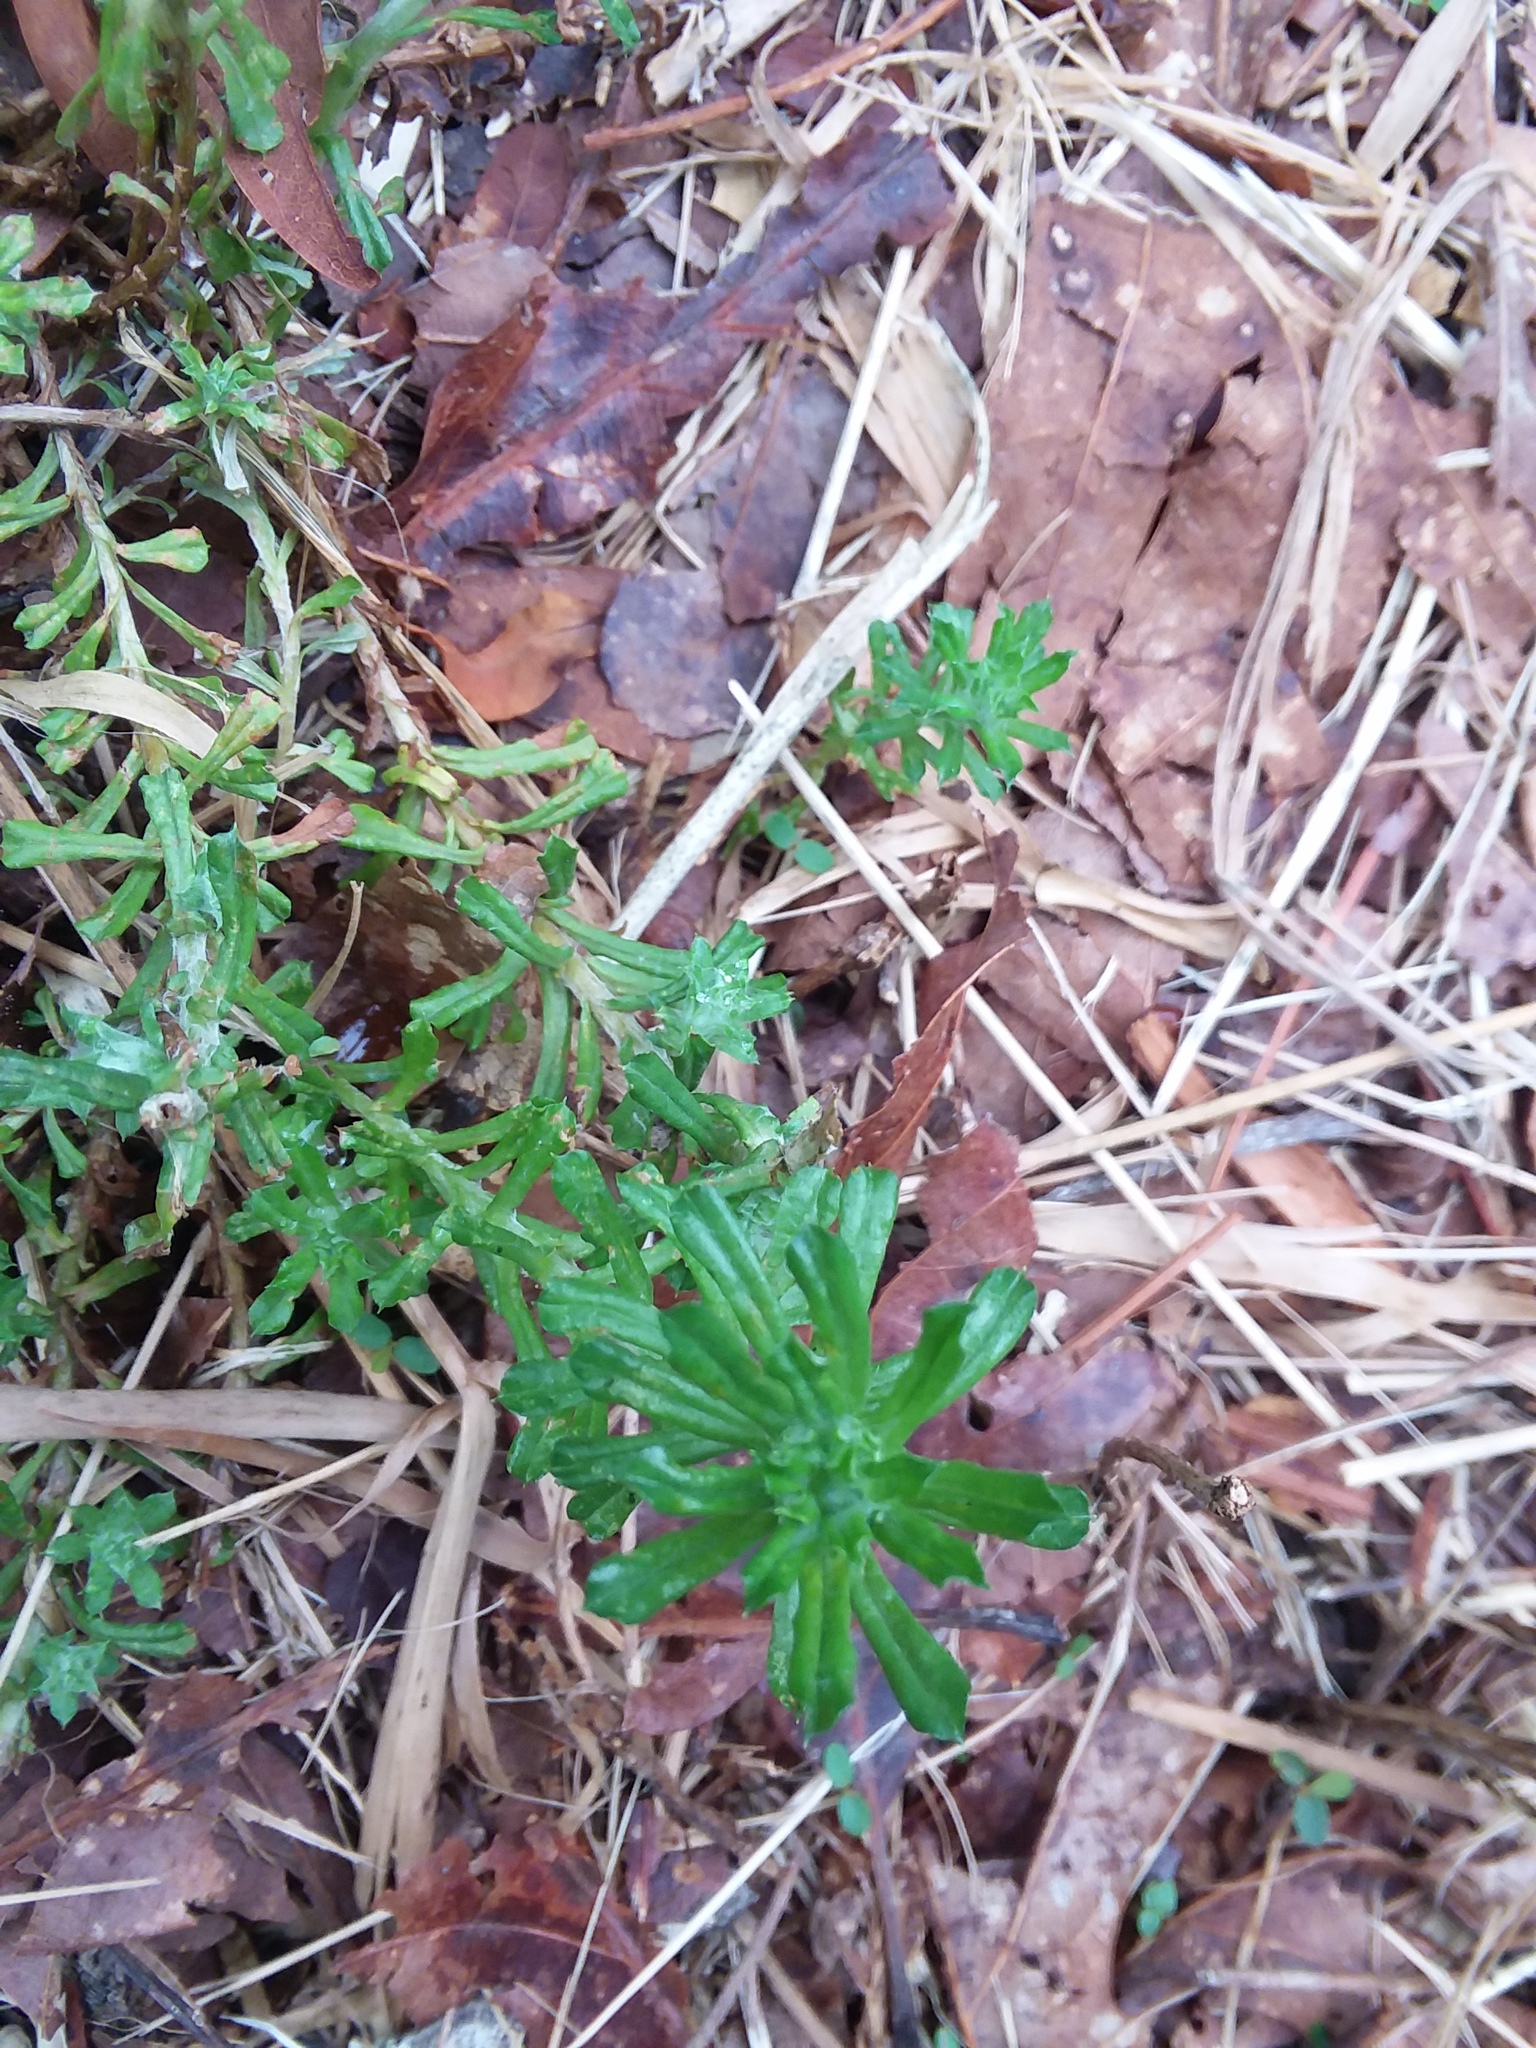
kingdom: Plantae
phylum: Tracheophyta
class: Magnoliopsida
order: Asterales
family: Asteraceae
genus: Facelis
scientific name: Facelis retusa
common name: Annual trampweed
